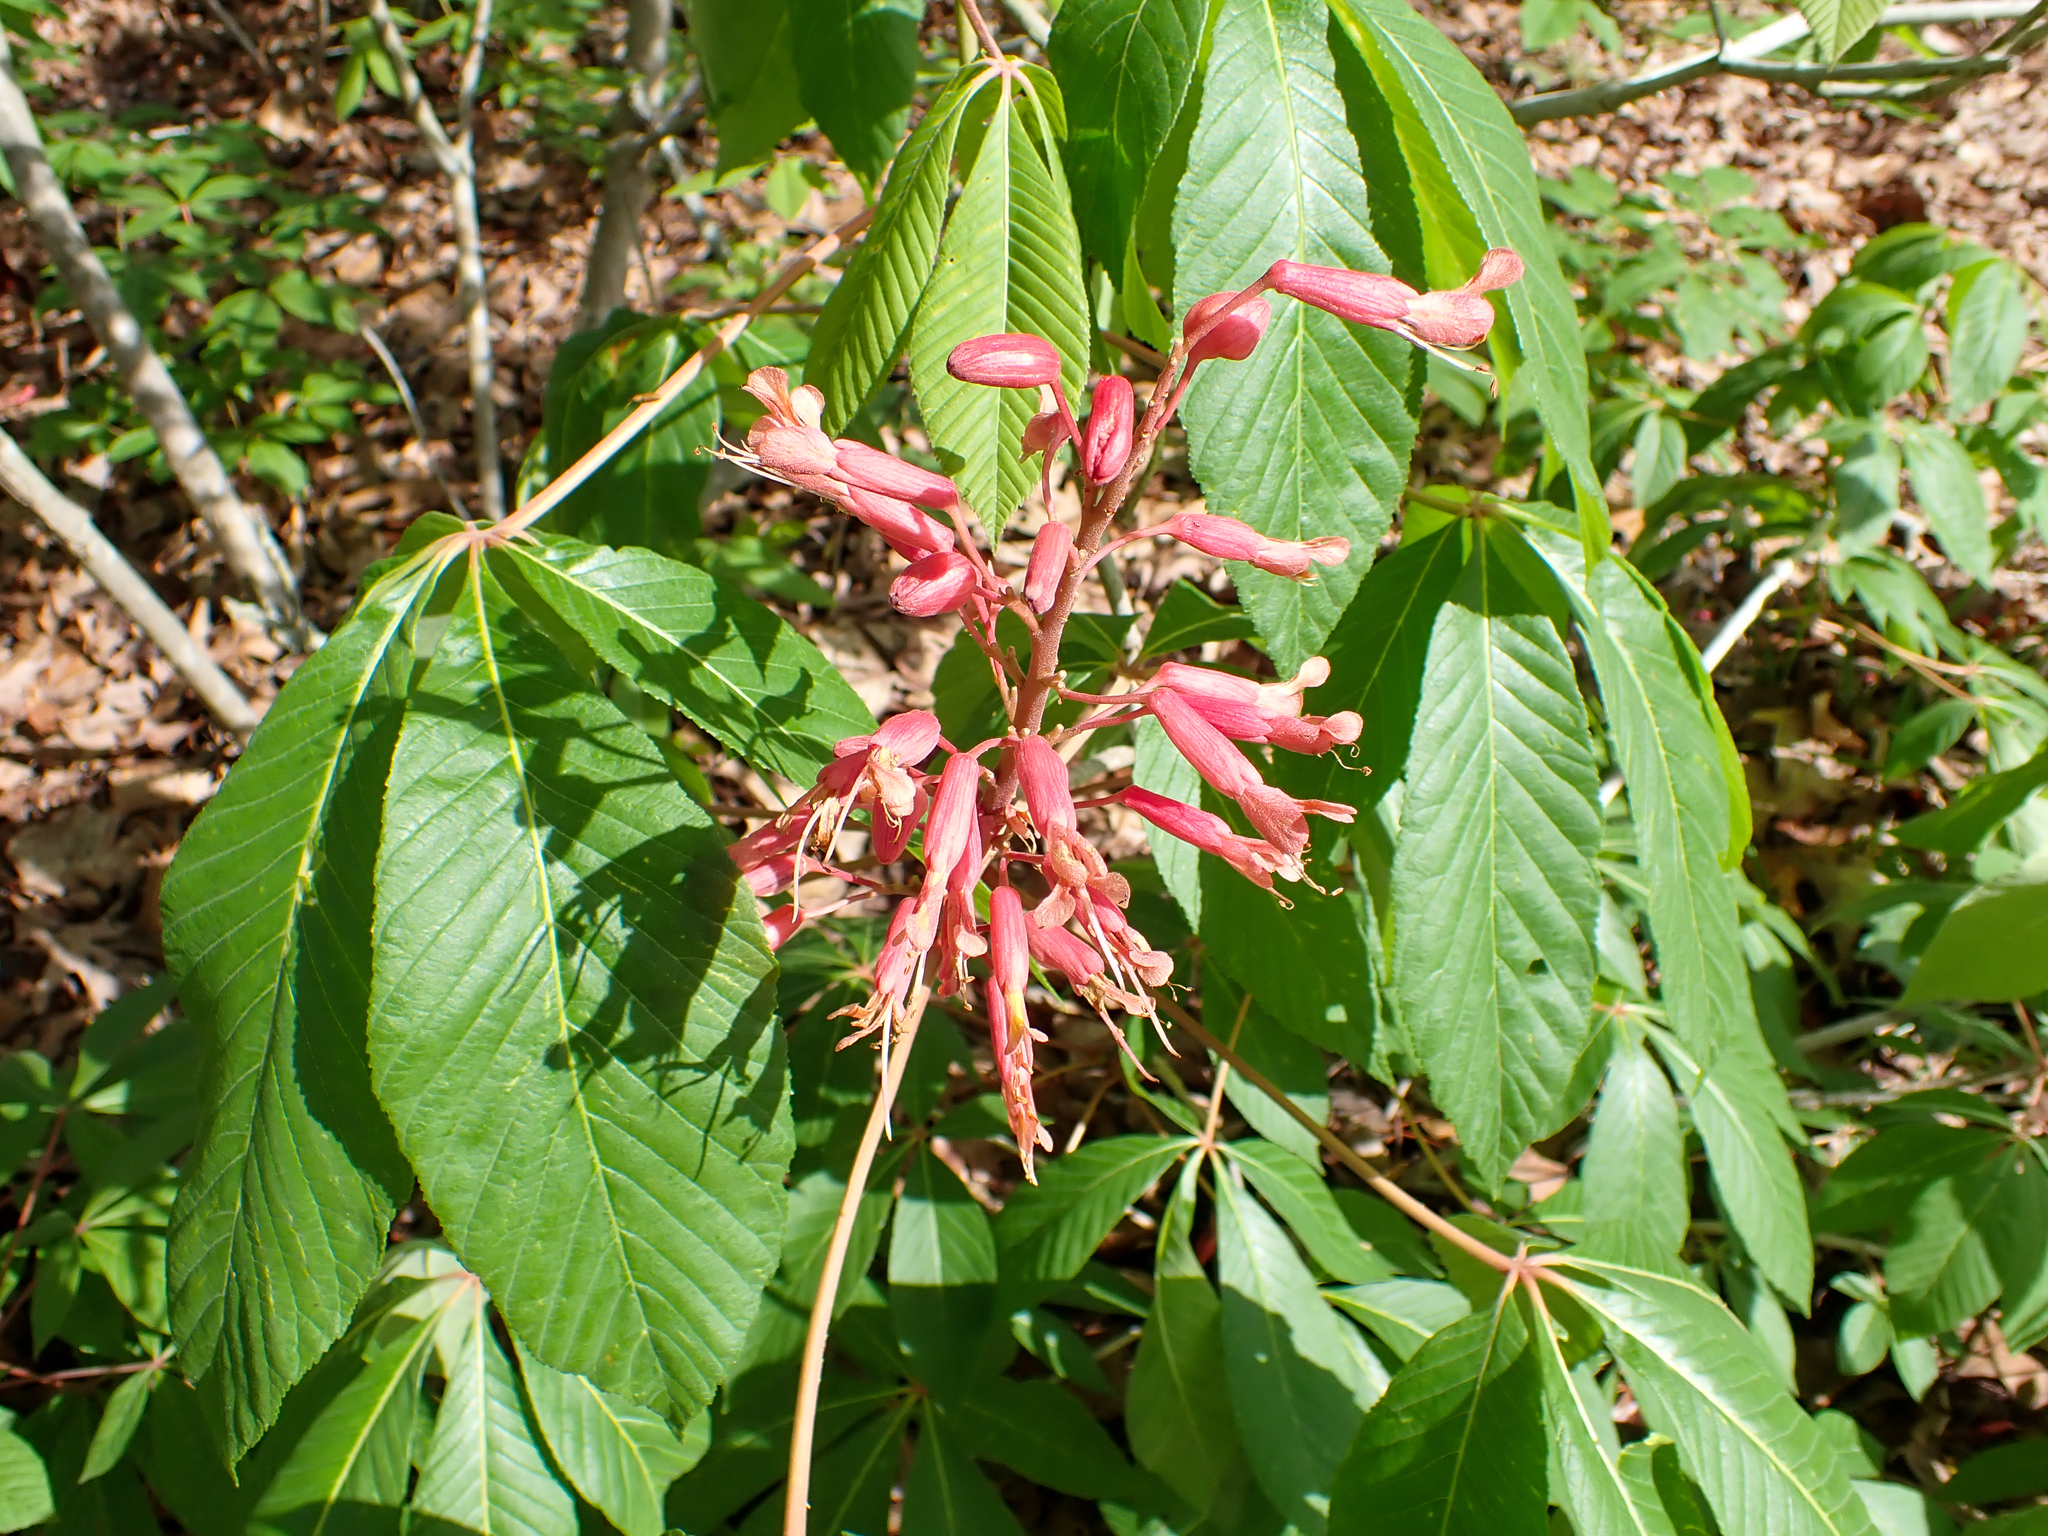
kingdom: Plantae
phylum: Tracheophyta
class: Magnoliopsida
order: Sapindales
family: Sapindaceae
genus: Aesculus
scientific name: Aesculus pavia
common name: Red buckeye
